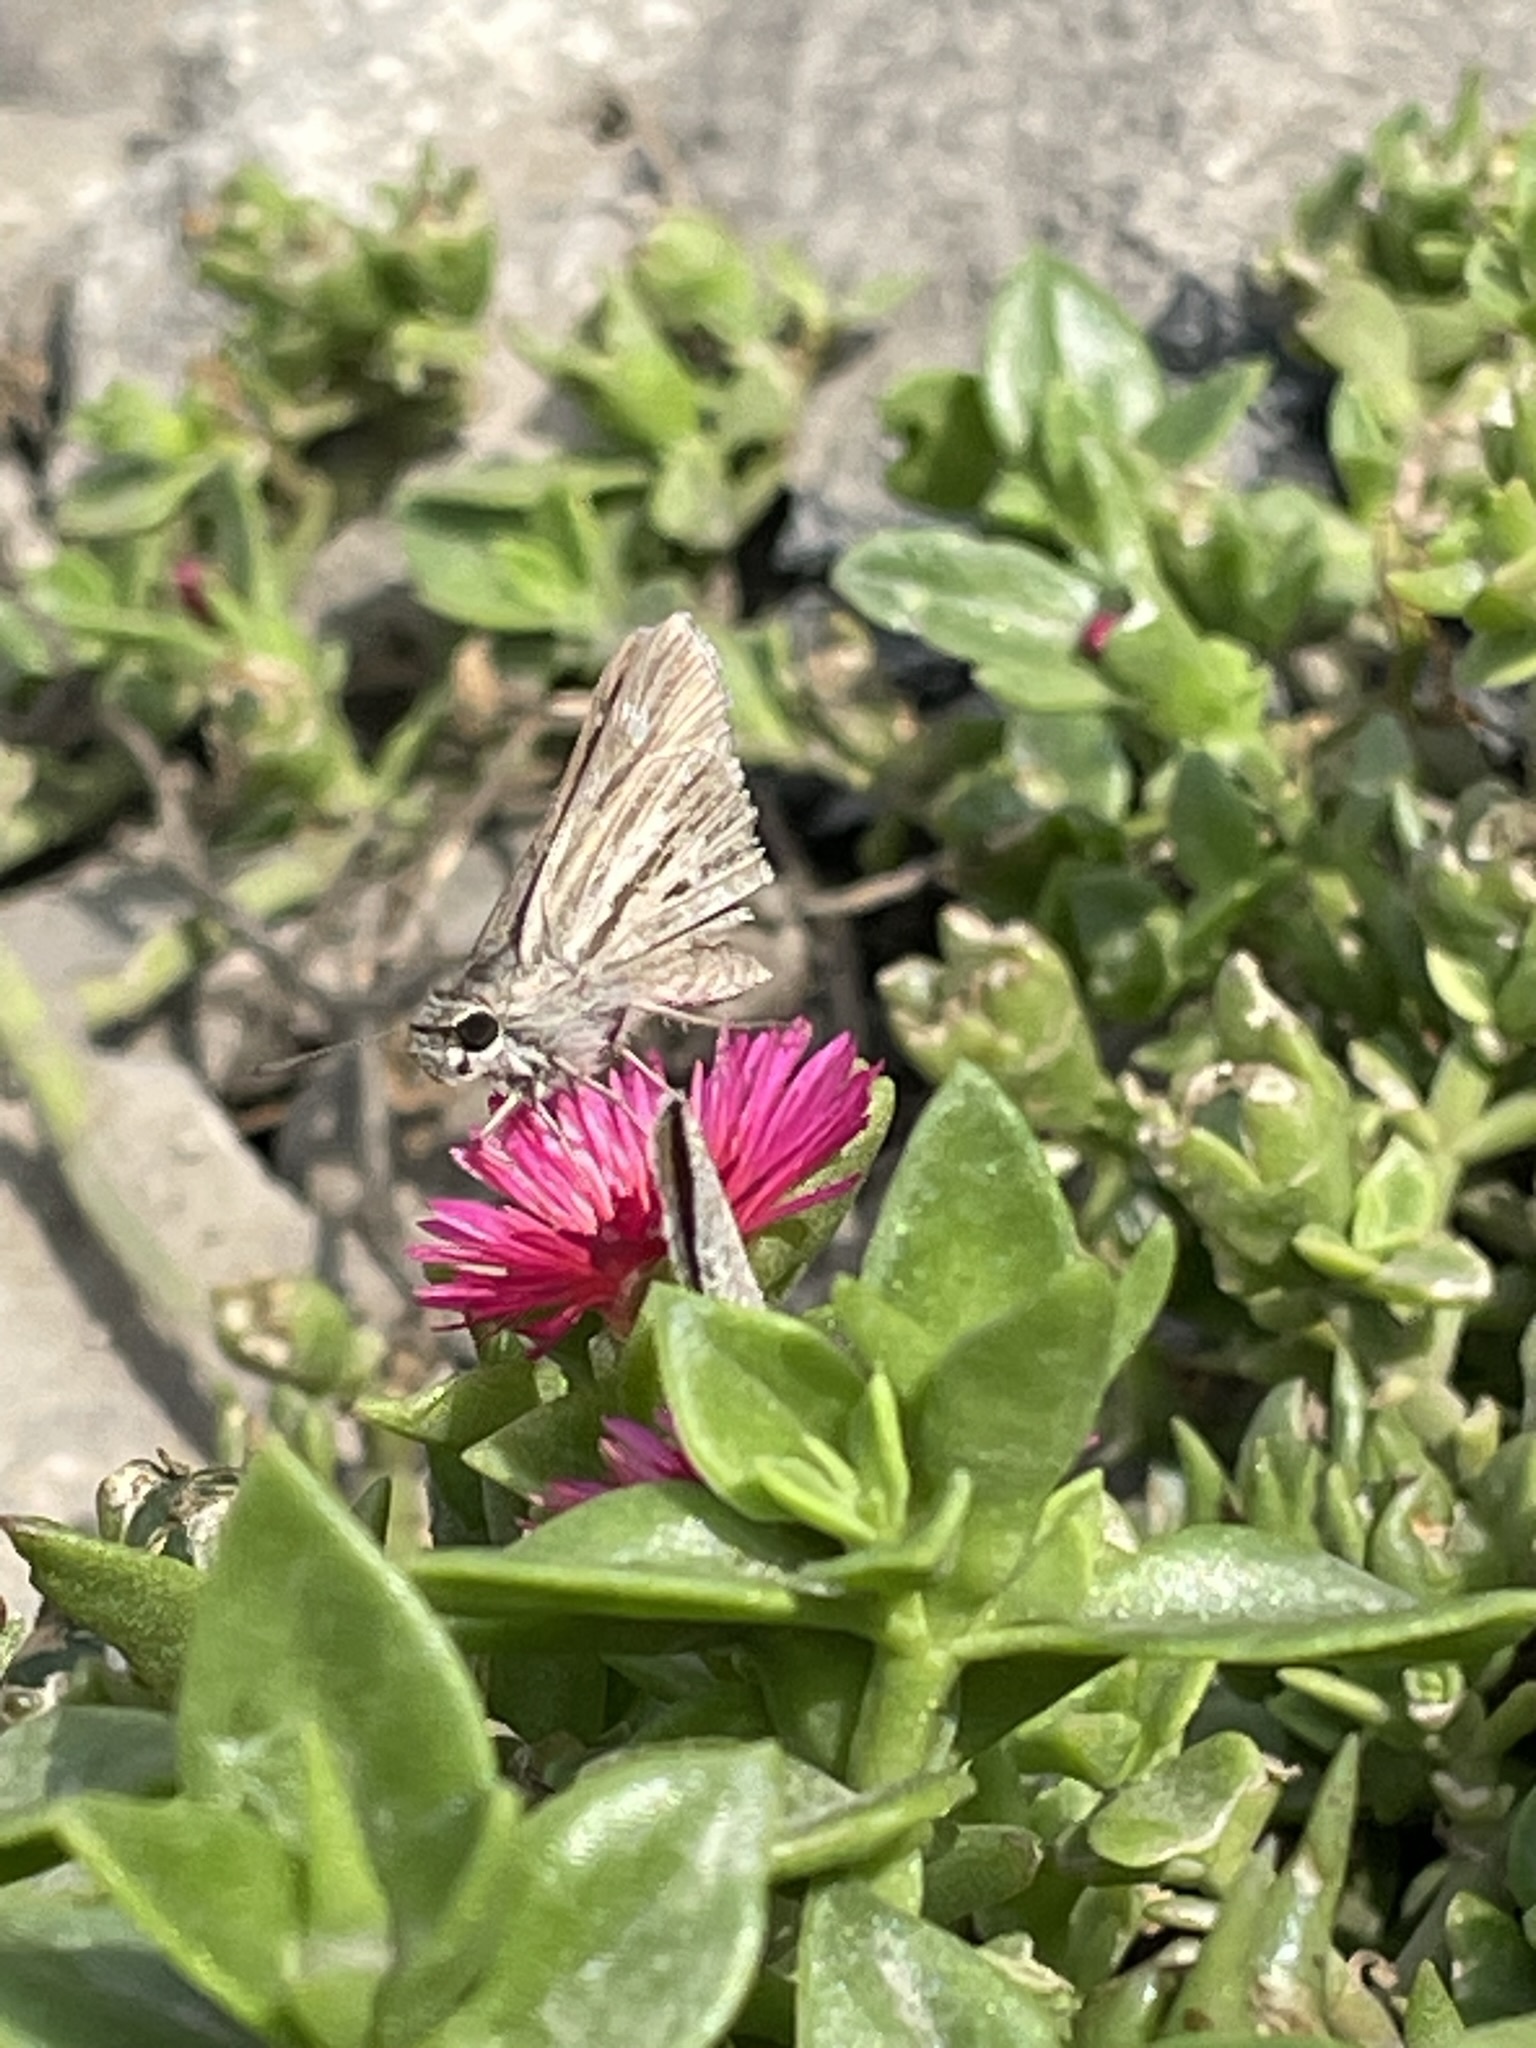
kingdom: Plantae
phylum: Tracheophyta
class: Magnoliopsida
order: Caryophyllales
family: Aizoaceae
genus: Mesembryanthemum
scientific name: Mesembryanthemum cordifolium
